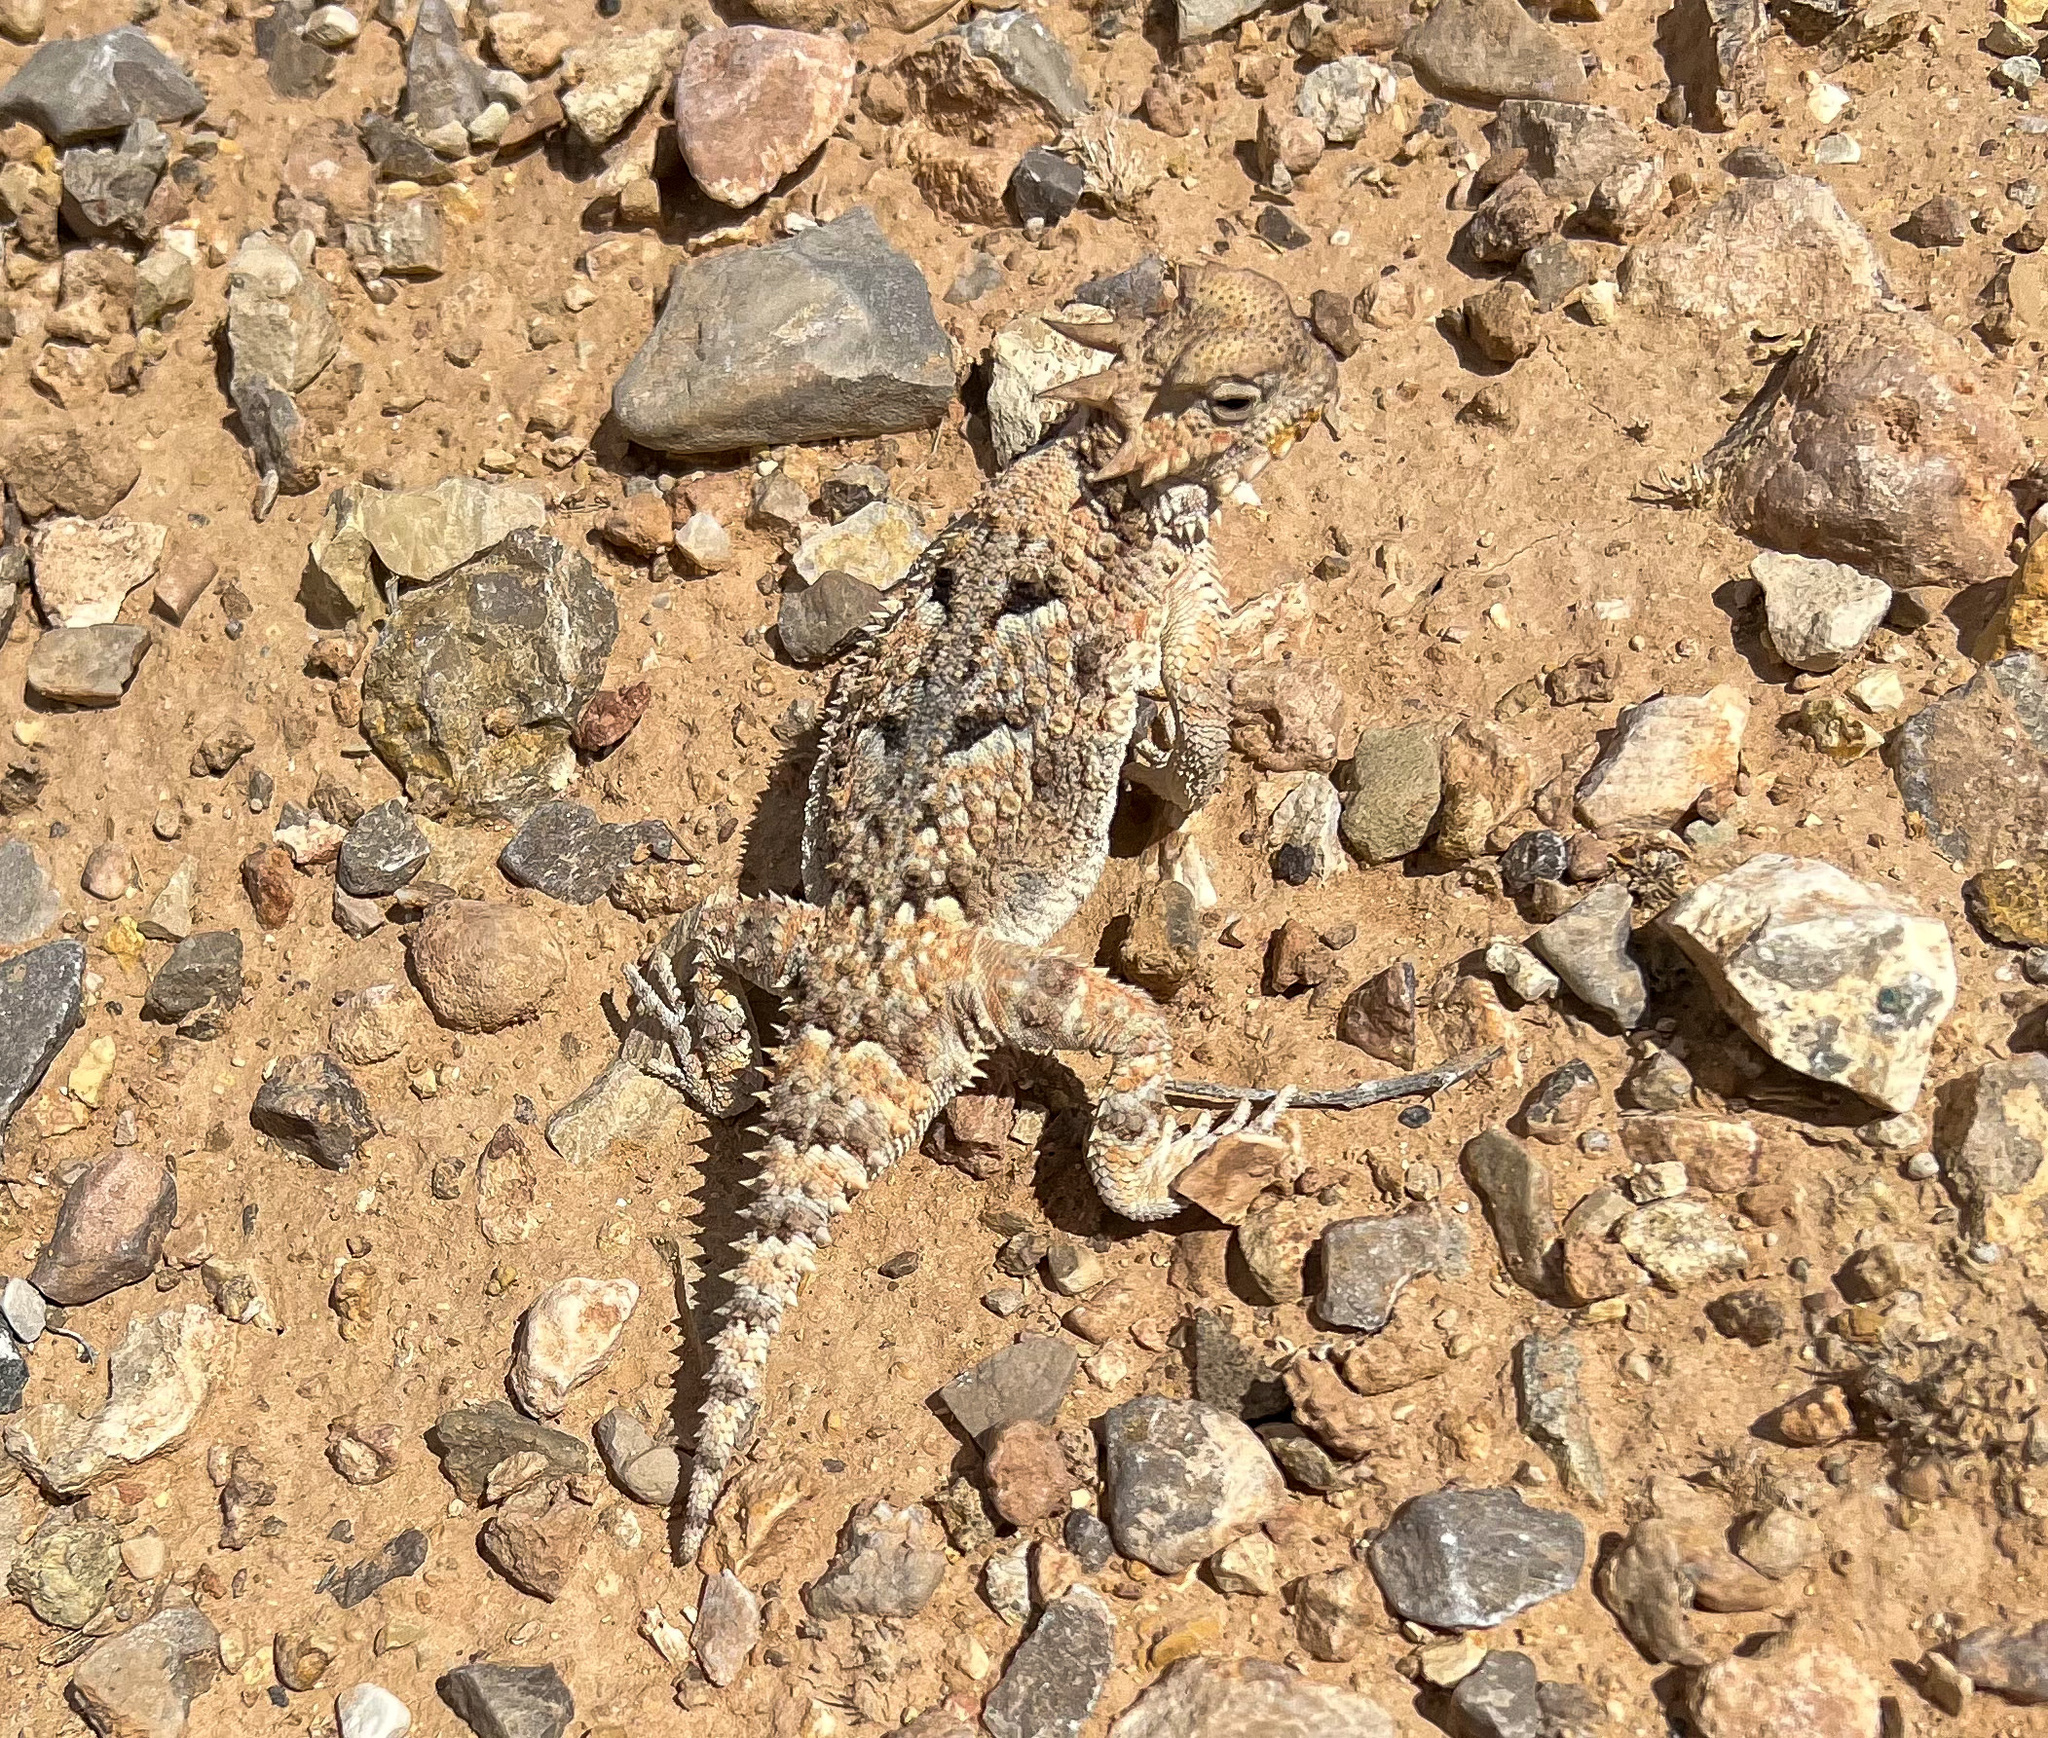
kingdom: Animalia
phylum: Chordata
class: Squamata
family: Phrynosomatidae
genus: Phrynosoma
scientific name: Phrynosoma platyrhinos
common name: Desert horned lizard
